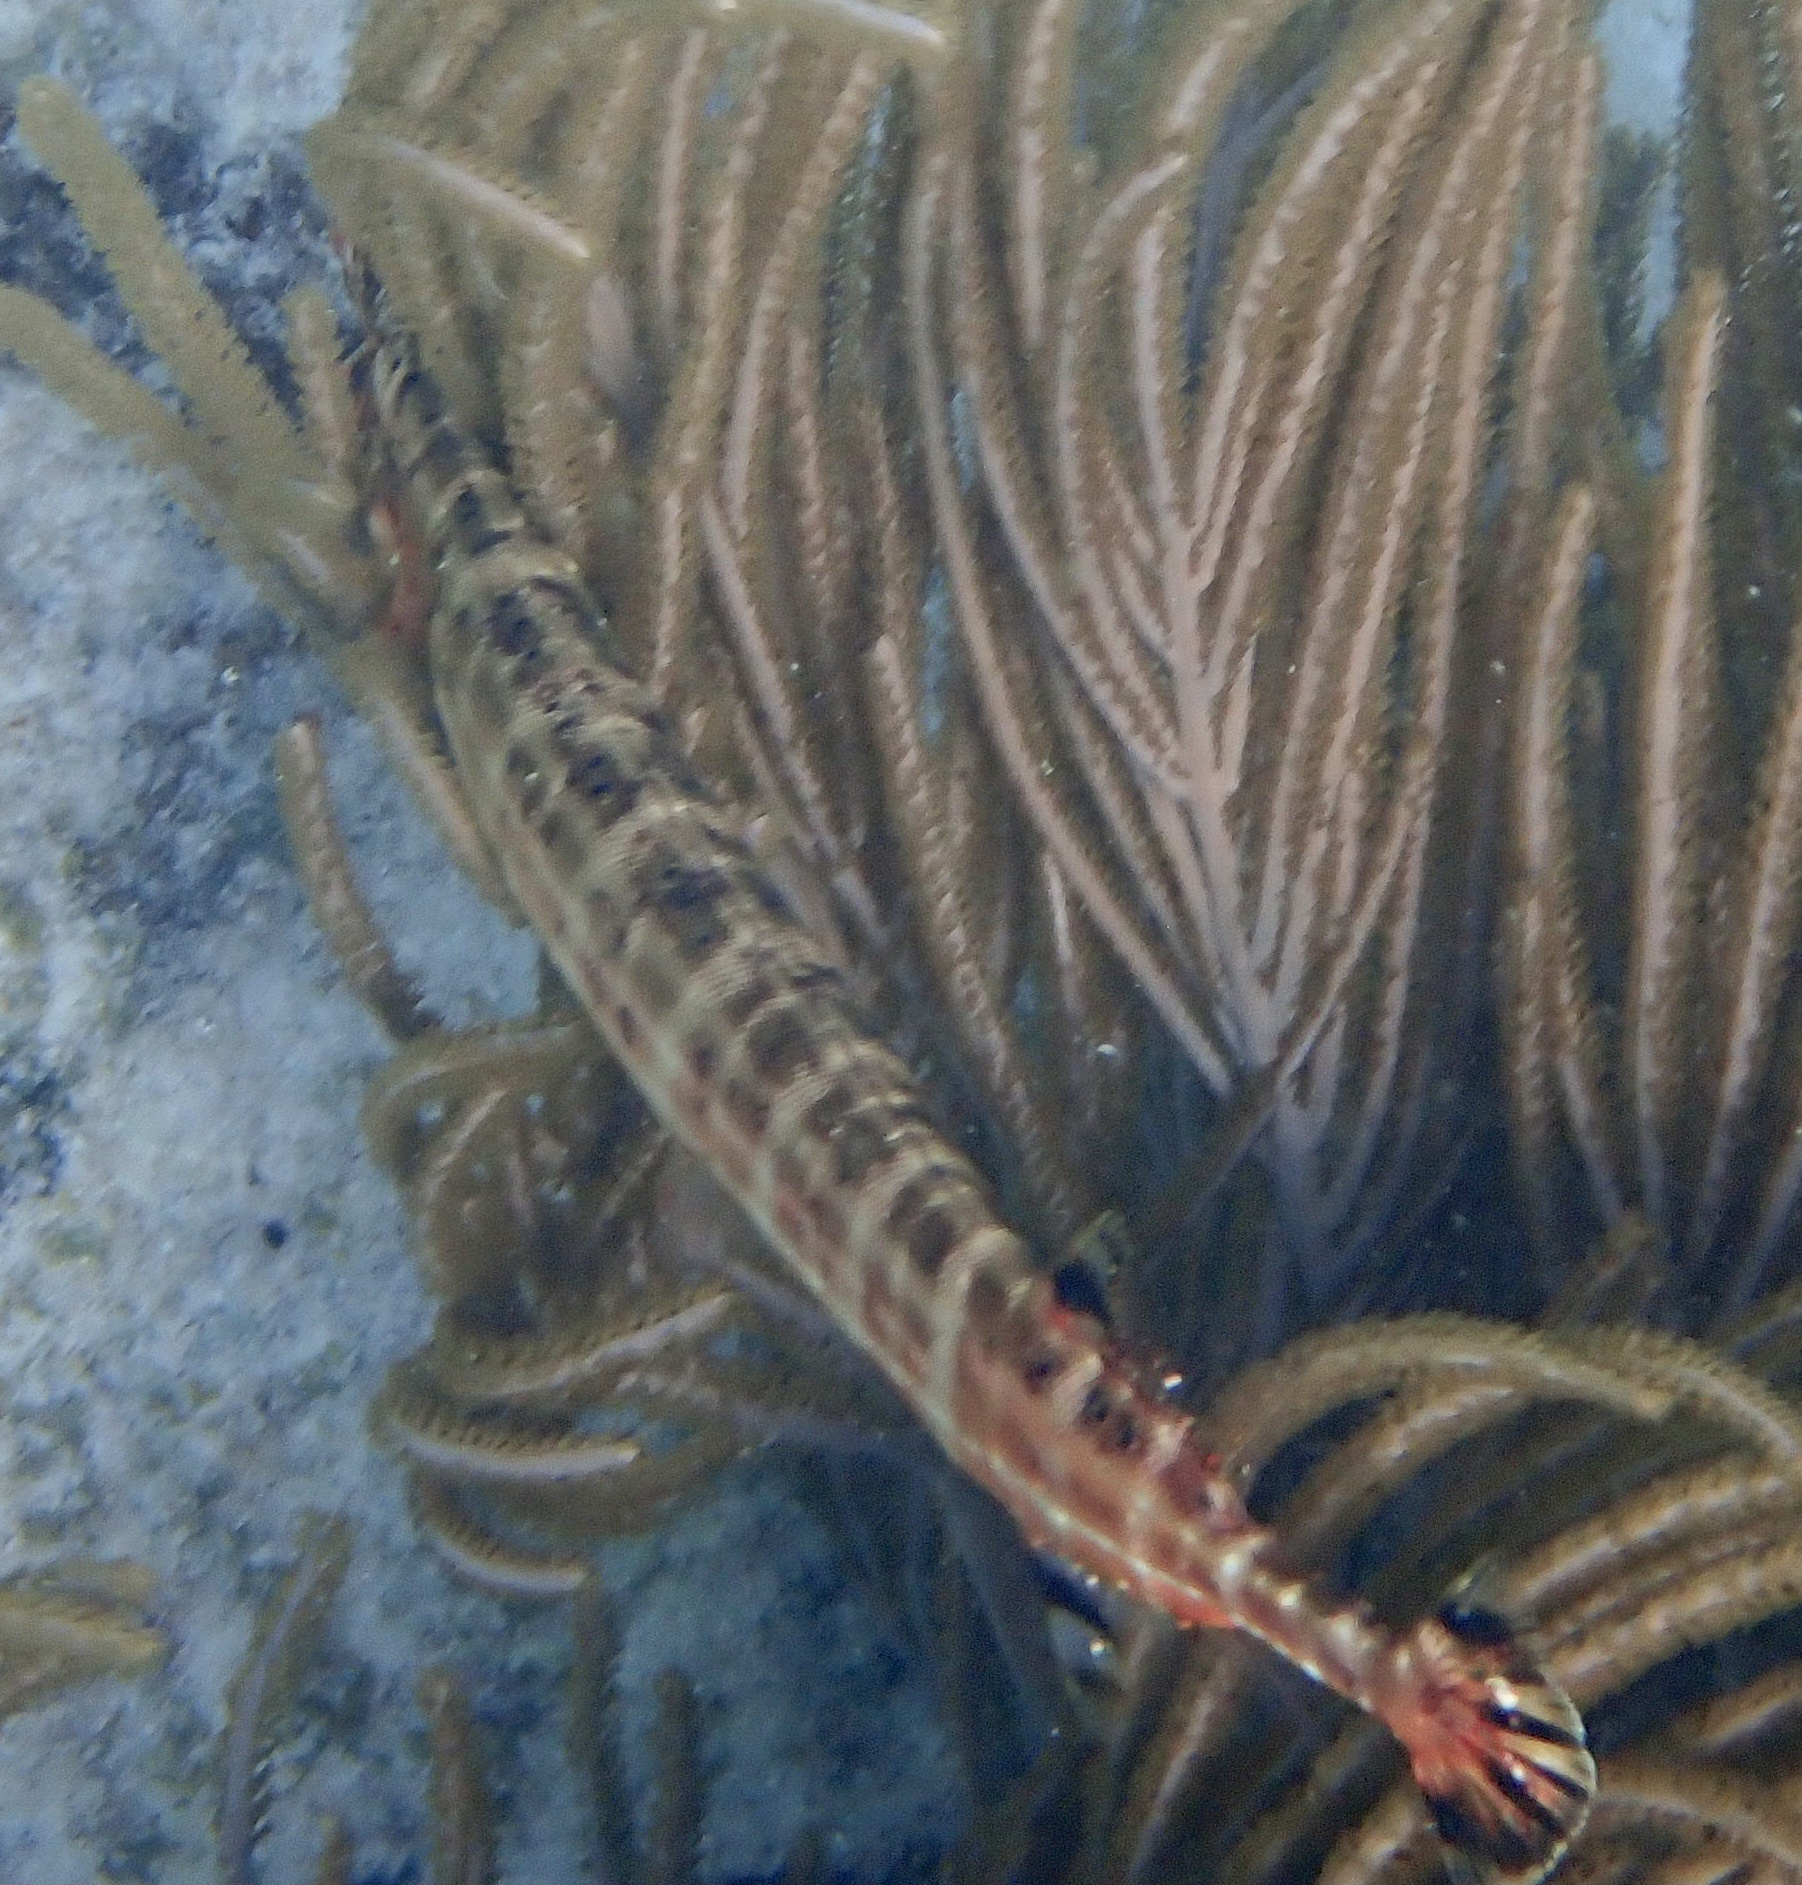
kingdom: Animalia
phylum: Chordata
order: Syngnathiformes
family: Aulostomidae
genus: Aulostomus
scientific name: Aulostomus maculatus
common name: West atlantic trumpetfish
